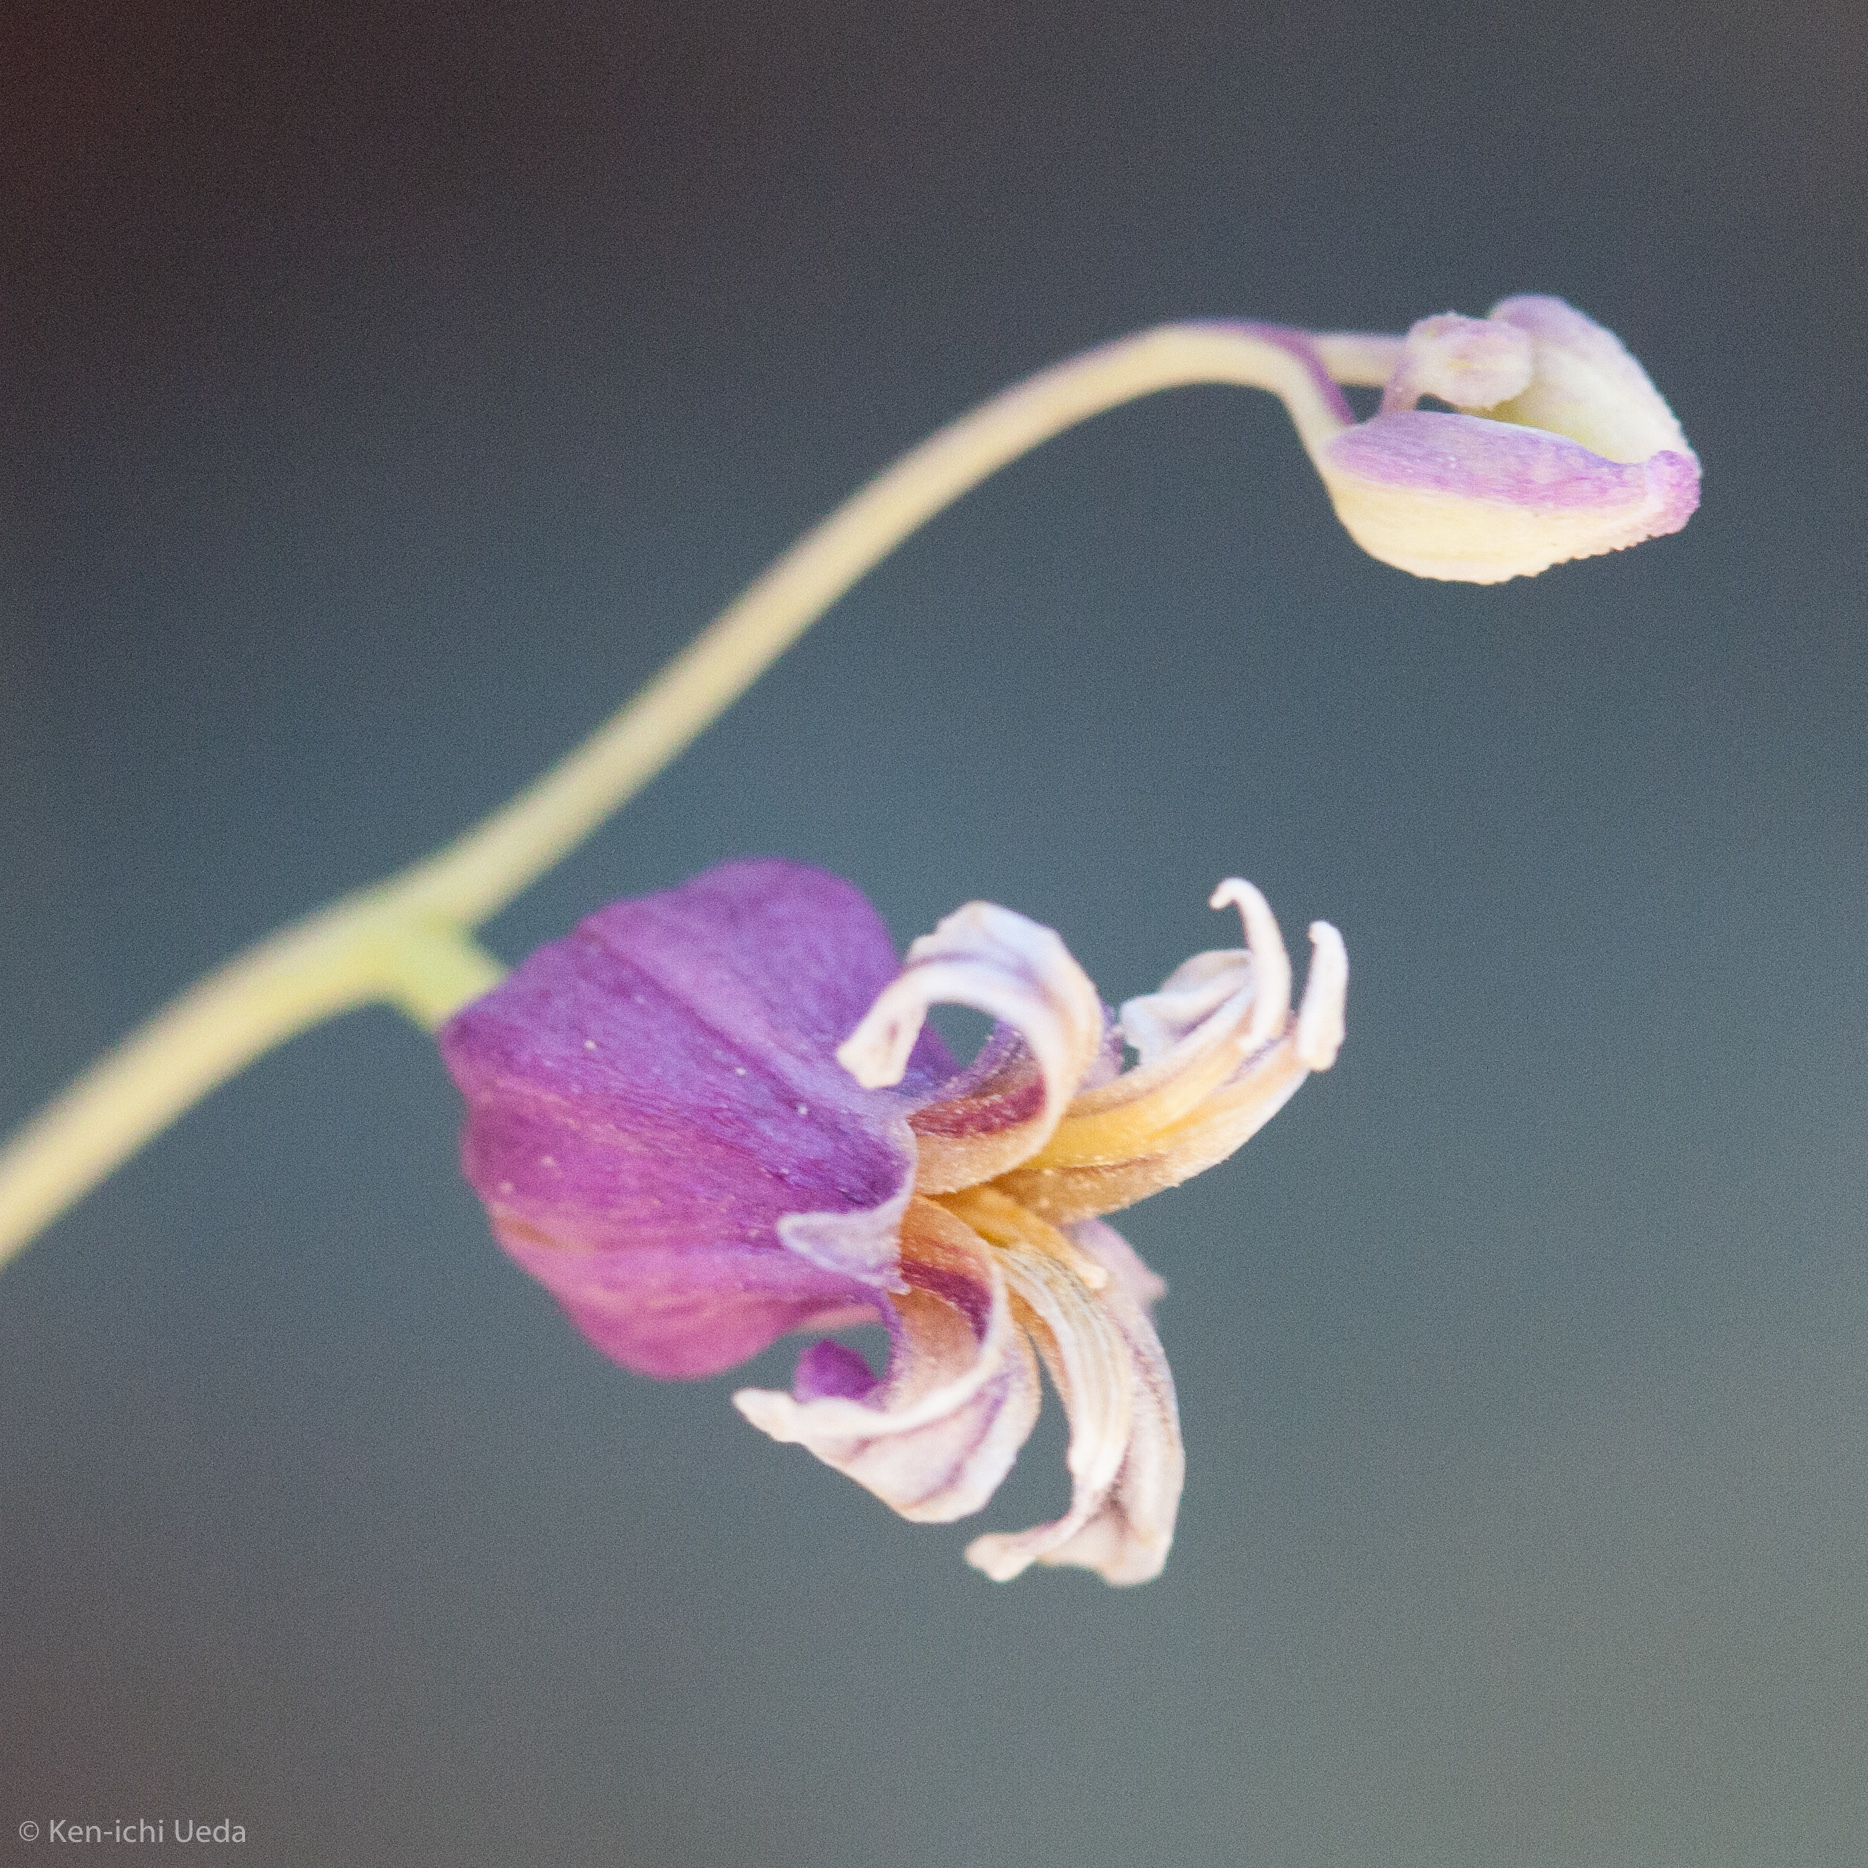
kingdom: Plantae
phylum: Tracheophyta
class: Magnoliopsida
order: Brassicales
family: Brassicaceae
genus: Streptanthus
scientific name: Streptanthus tortuosus
